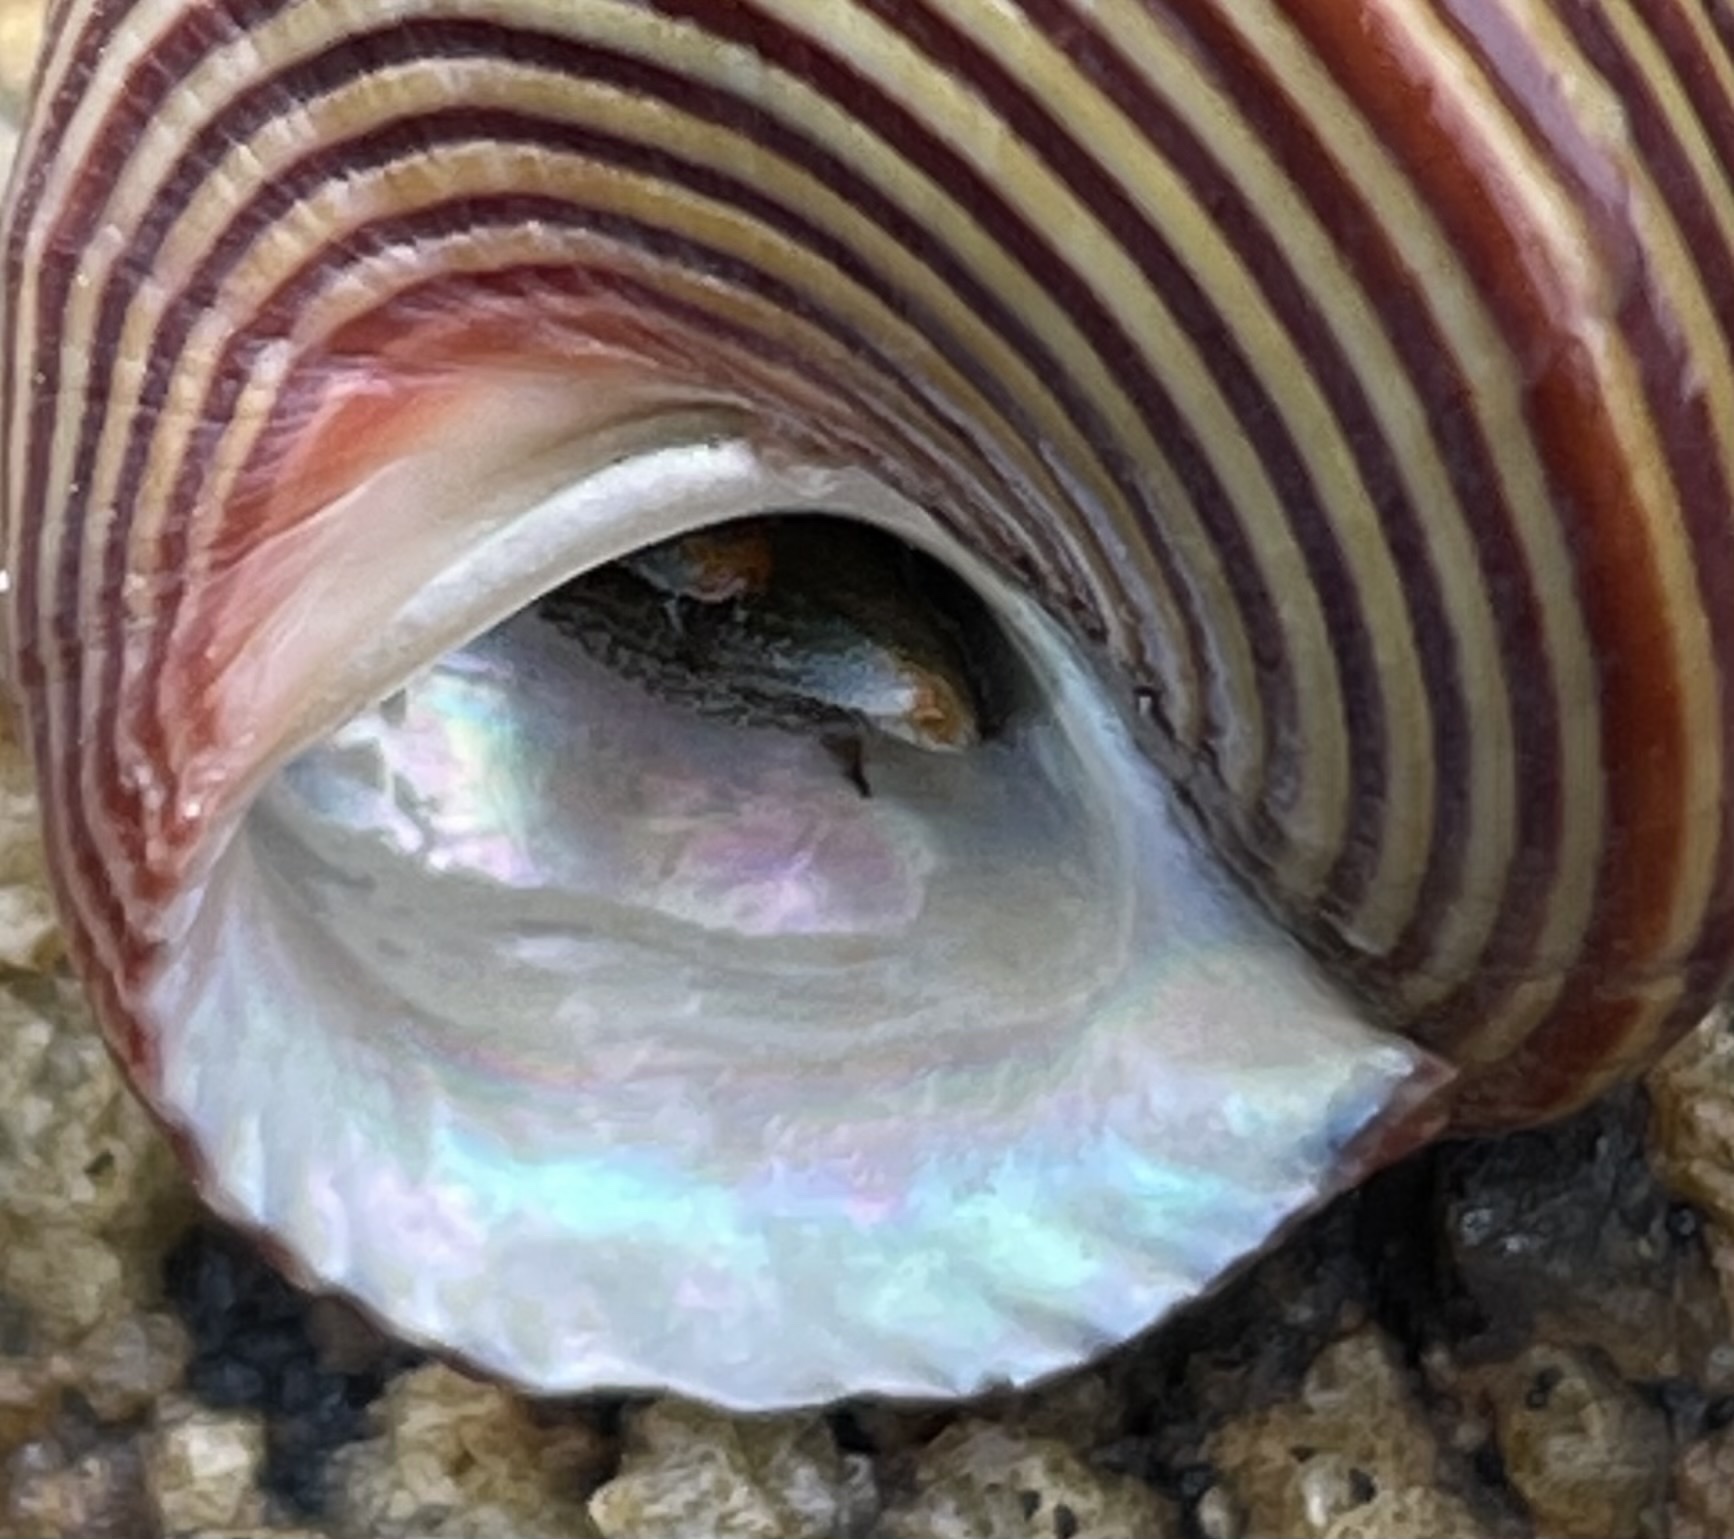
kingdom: Animalia
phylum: Arthropoda
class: Malacostraca
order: Decapoda
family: Paguridae
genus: Pagurus
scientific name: Pagurus samuelis
